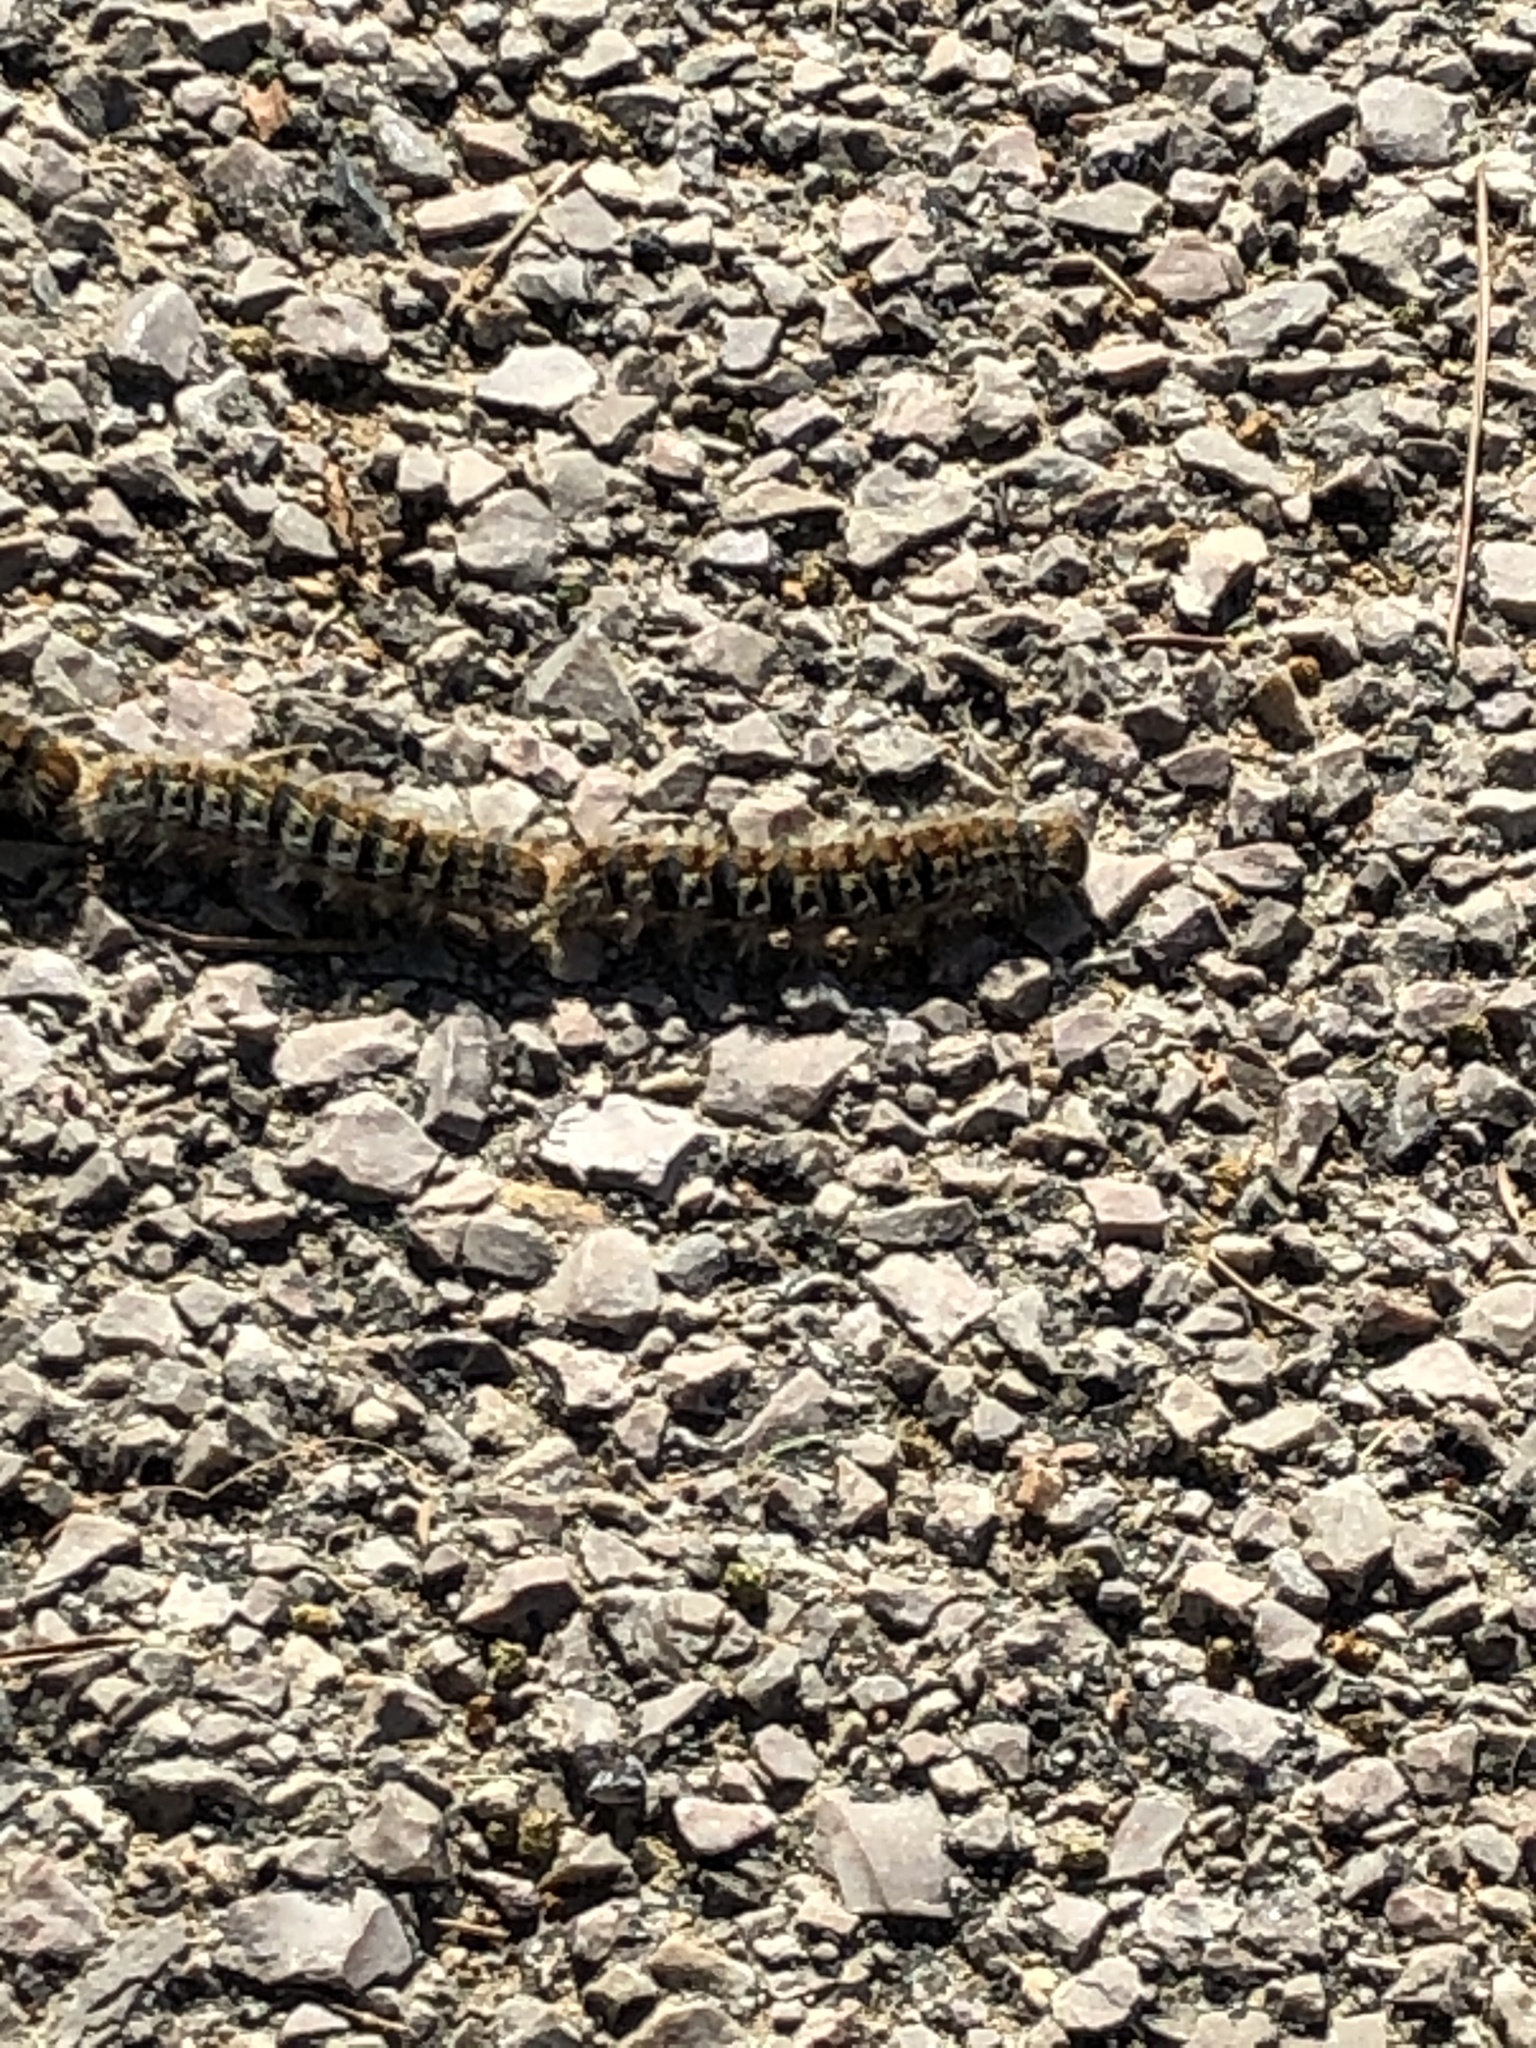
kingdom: Animalia
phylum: Arthropoda
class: Insecta
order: Lepidoptera
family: Notodontidae
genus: Thaumetopoea
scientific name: Thaumetopoea pityocampa
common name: Pine processionary
